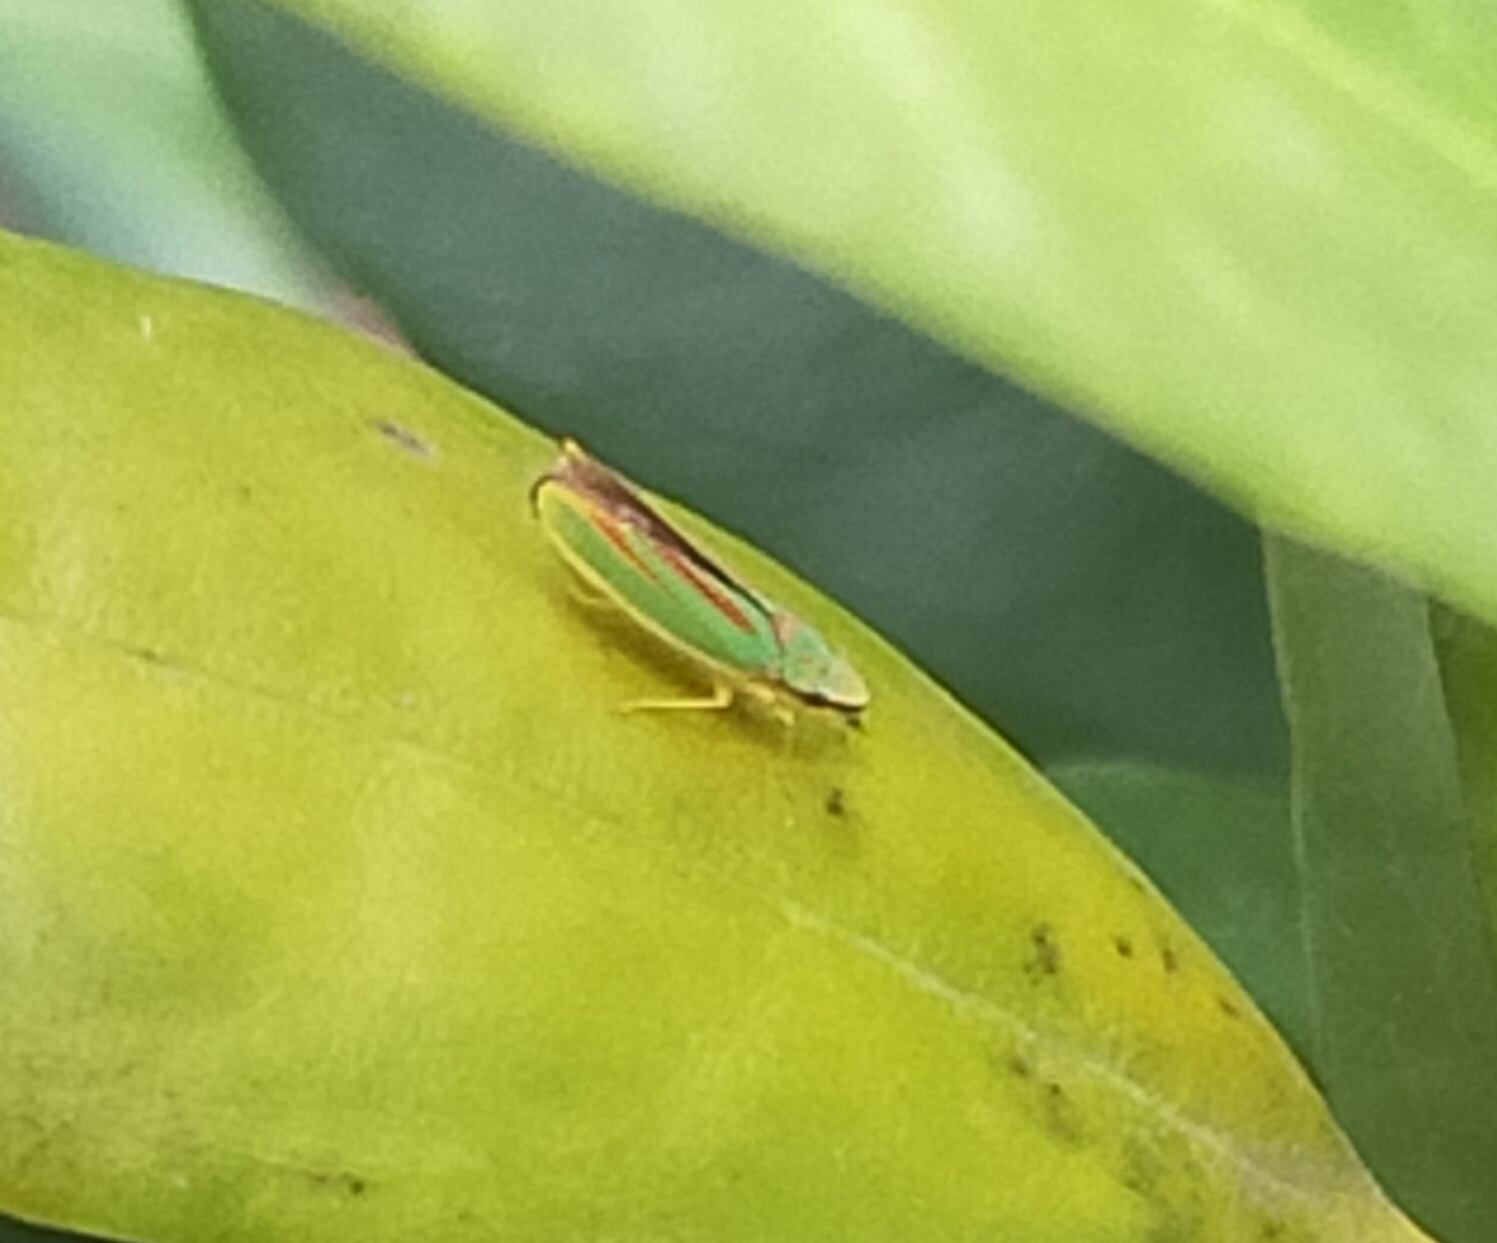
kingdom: Animalia
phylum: Arthropoda
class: Insecta
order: Hemiptera
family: Cicadellidae
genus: Graphocephala
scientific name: Graphocephala fennahi
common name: Rhododendron leafhopper
